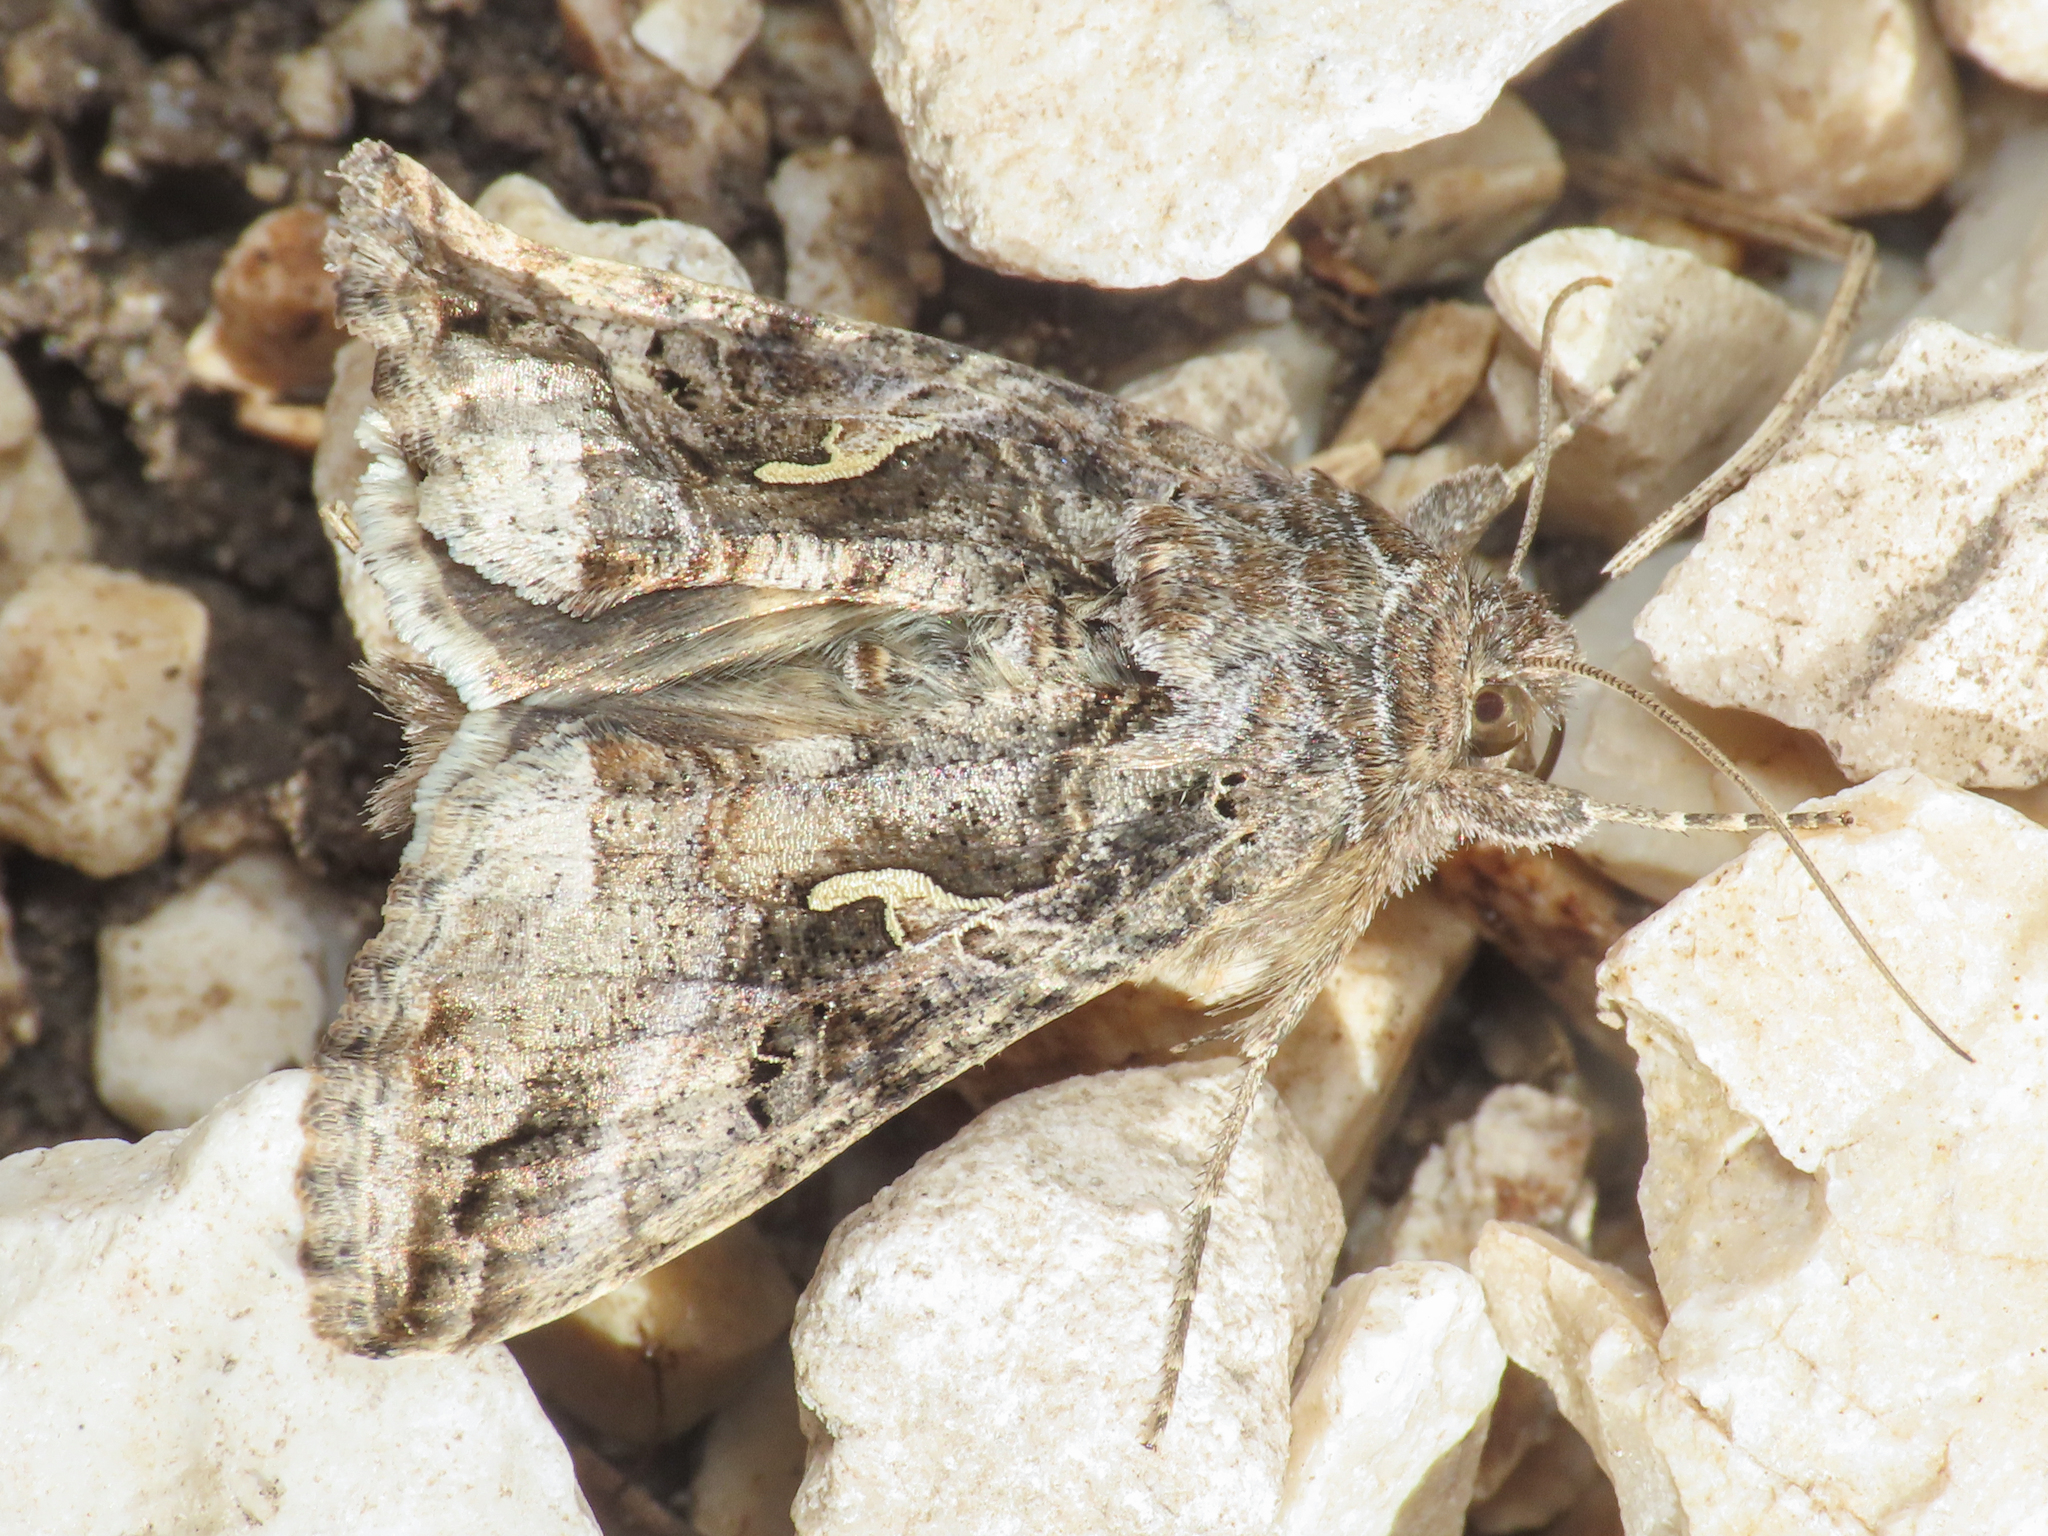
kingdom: Animalia
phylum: Arthropoda
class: Insecta
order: Lepidoptera
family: Noctuidae
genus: Autographa
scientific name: Autographa gamma
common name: Silver y
